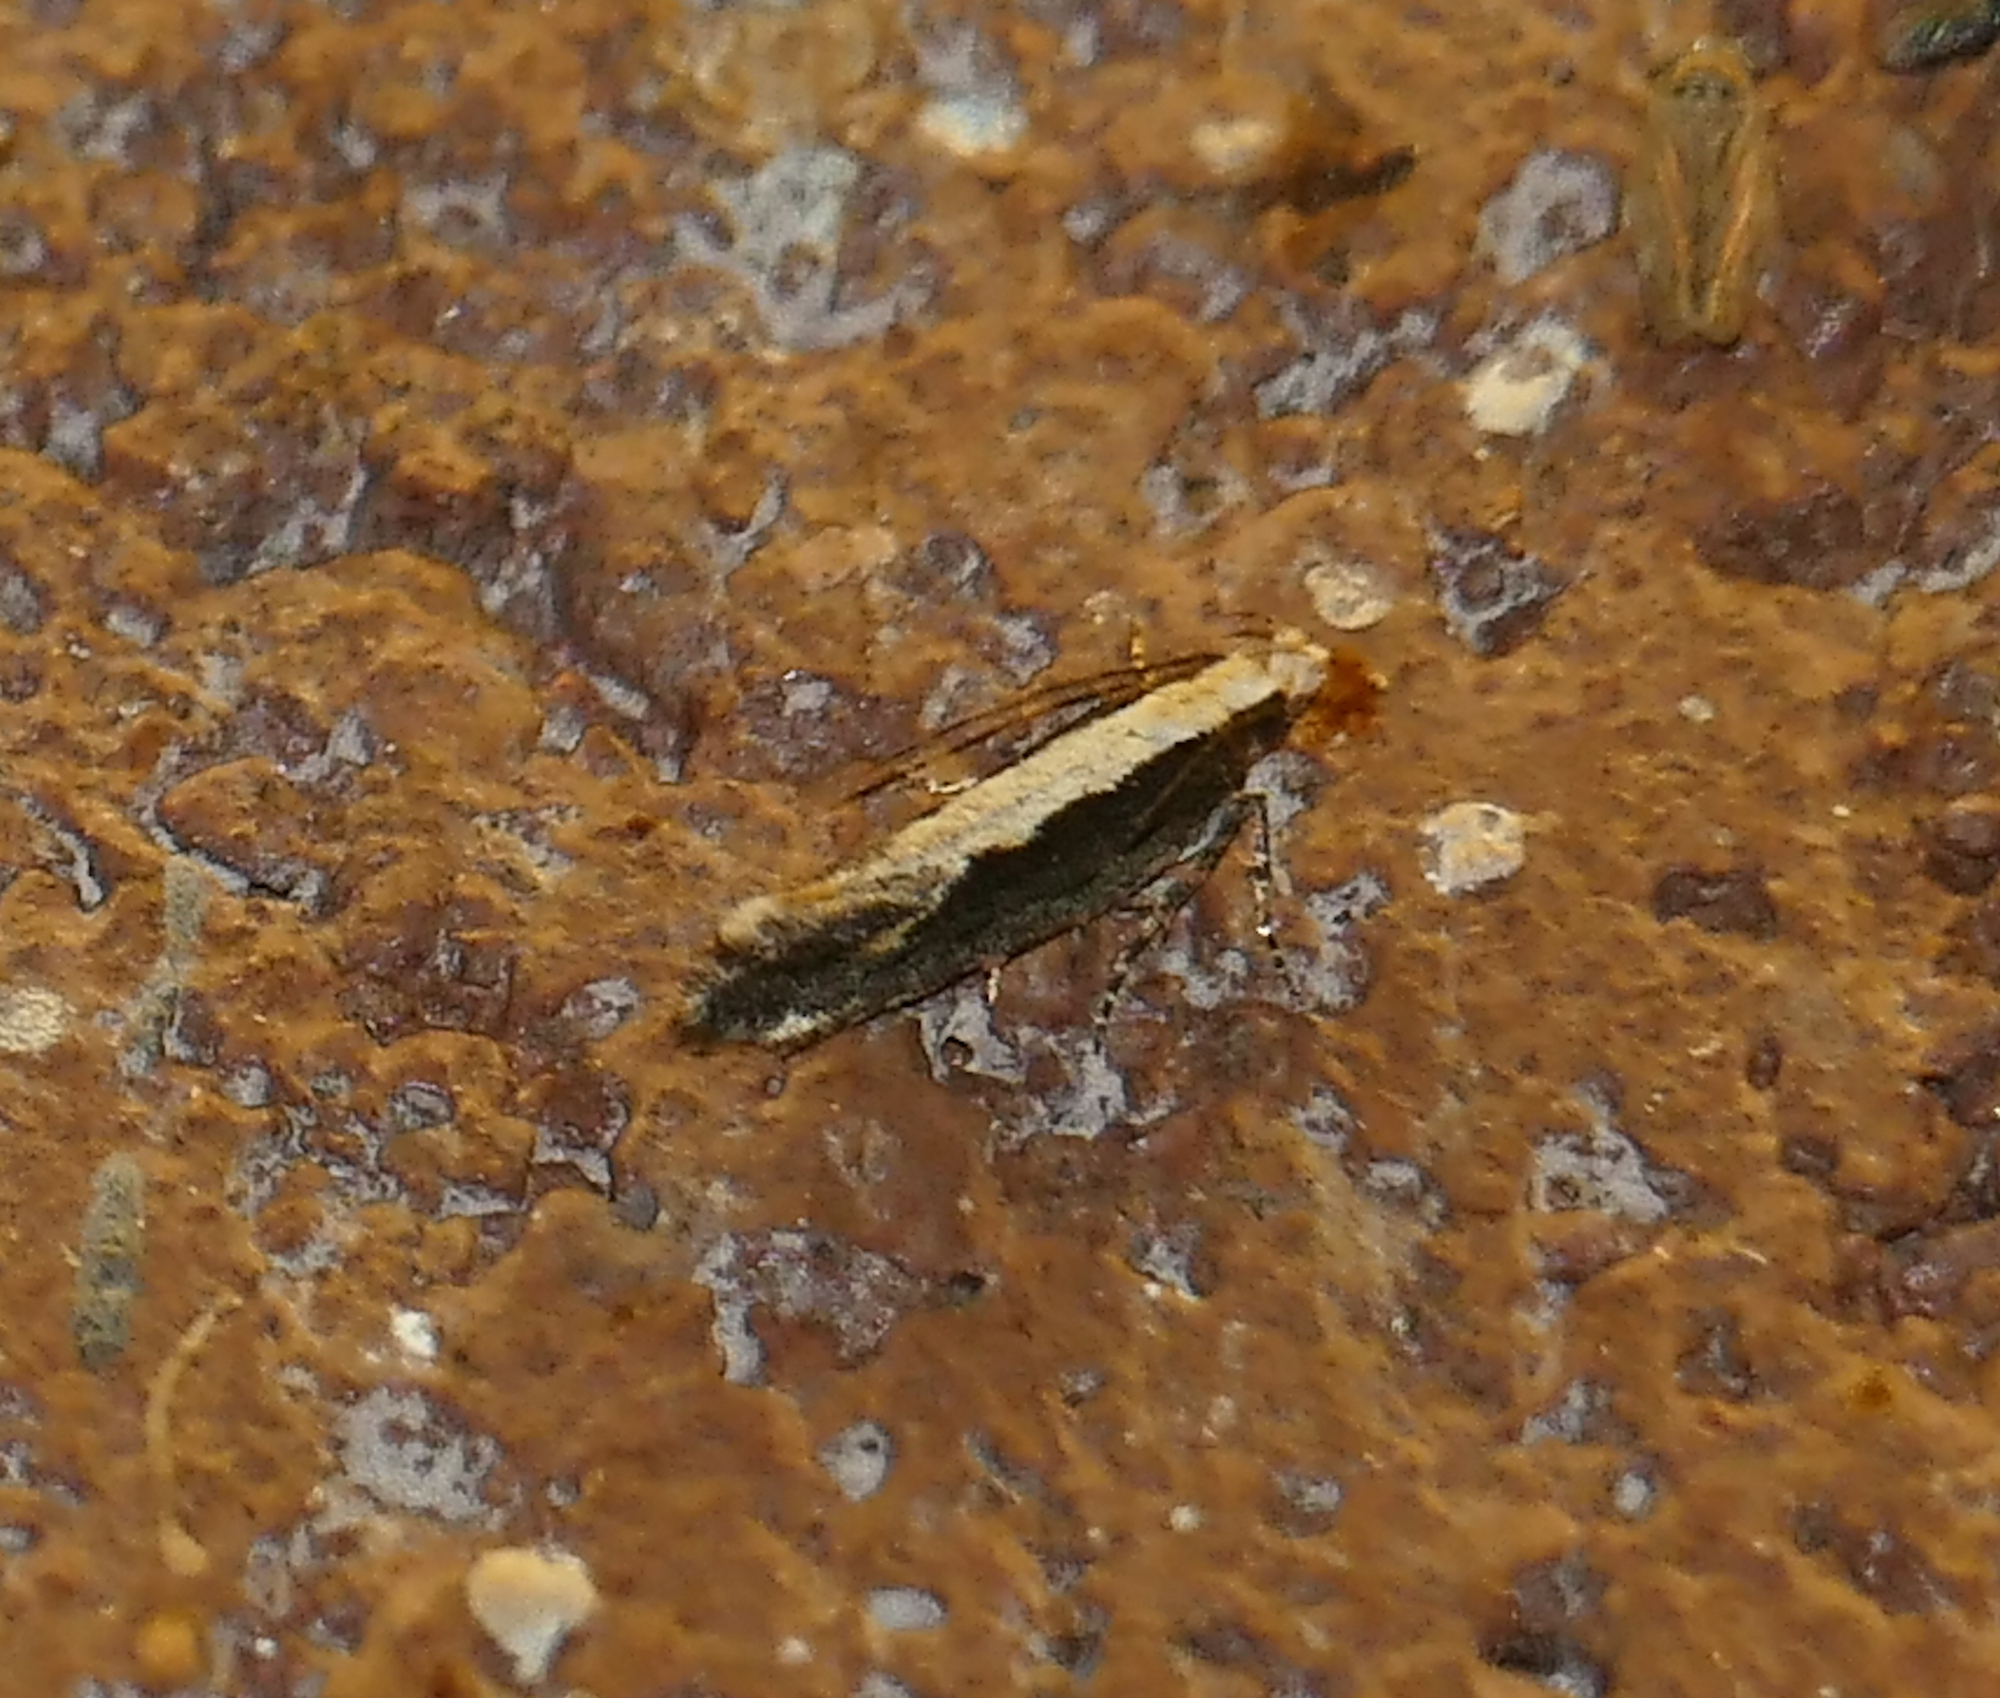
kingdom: Animalia
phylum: Arthropoda
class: Insecta
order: Lepidoptera
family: Gelechiidae
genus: Aristotelia
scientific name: Aristotelia corallina
